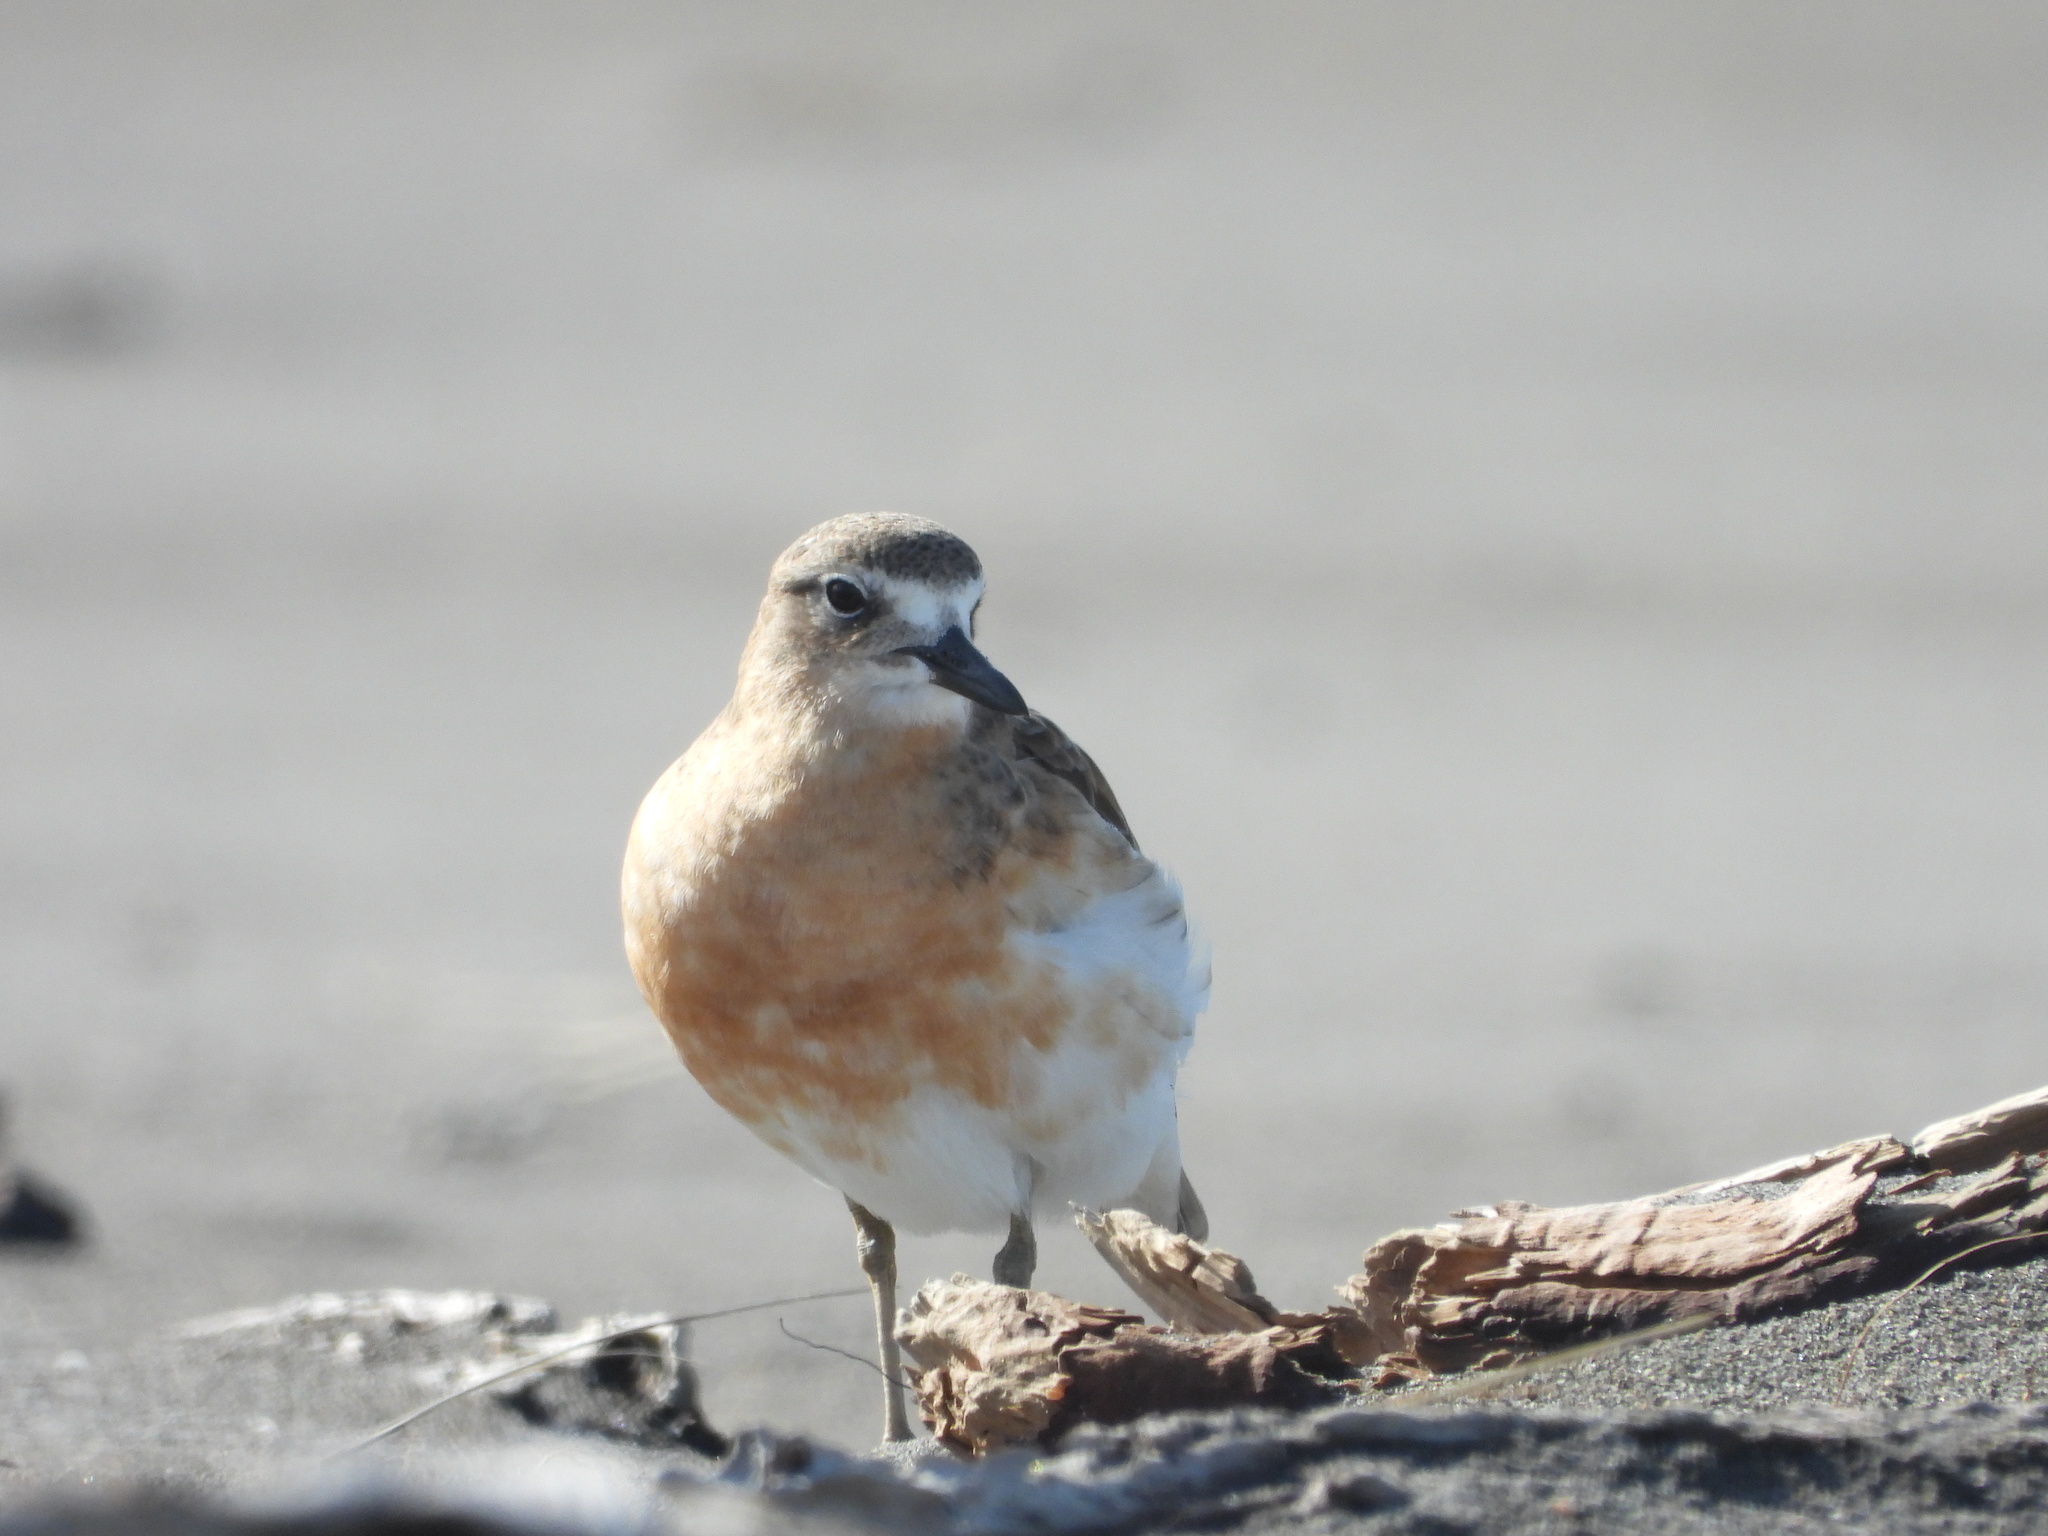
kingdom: Animalia
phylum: Chordata
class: Aves
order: Charadriiformes
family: Charadriidae
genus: Anarhynchus
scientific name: Anarhynchus
